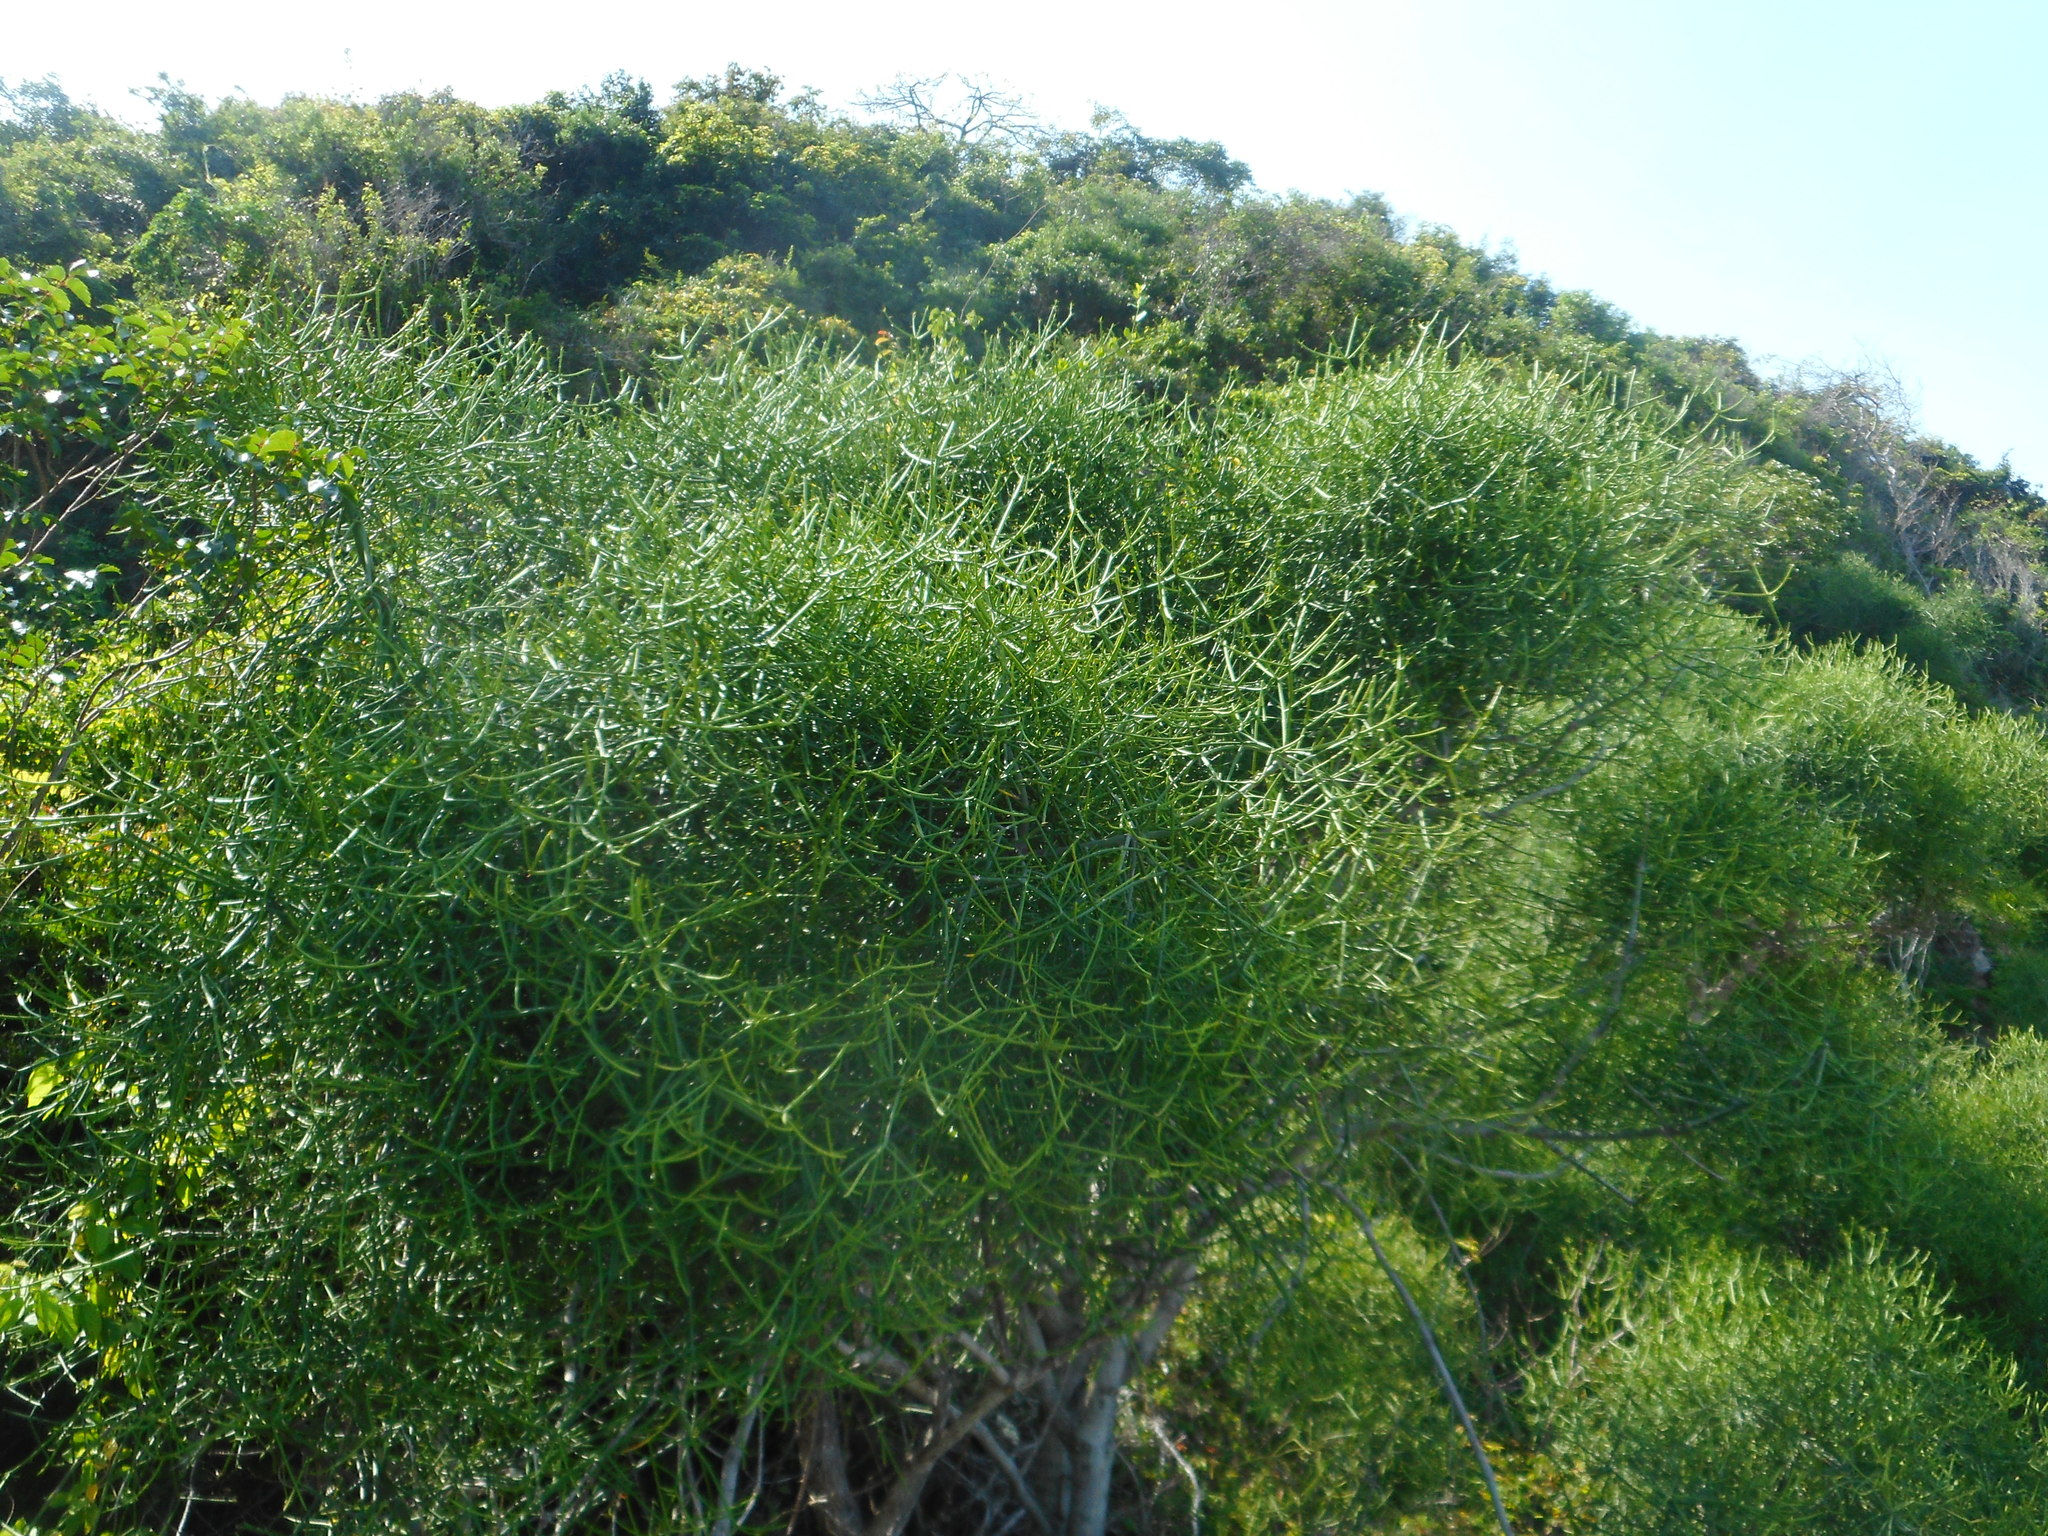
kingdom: Plantae
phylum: Tracheophyta
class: Magnoliopsida
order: Malpighiales
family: Euphorbiaceae
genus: Euphorbia
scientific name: Euphorbia tirucalli
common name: Indiantree spurge
